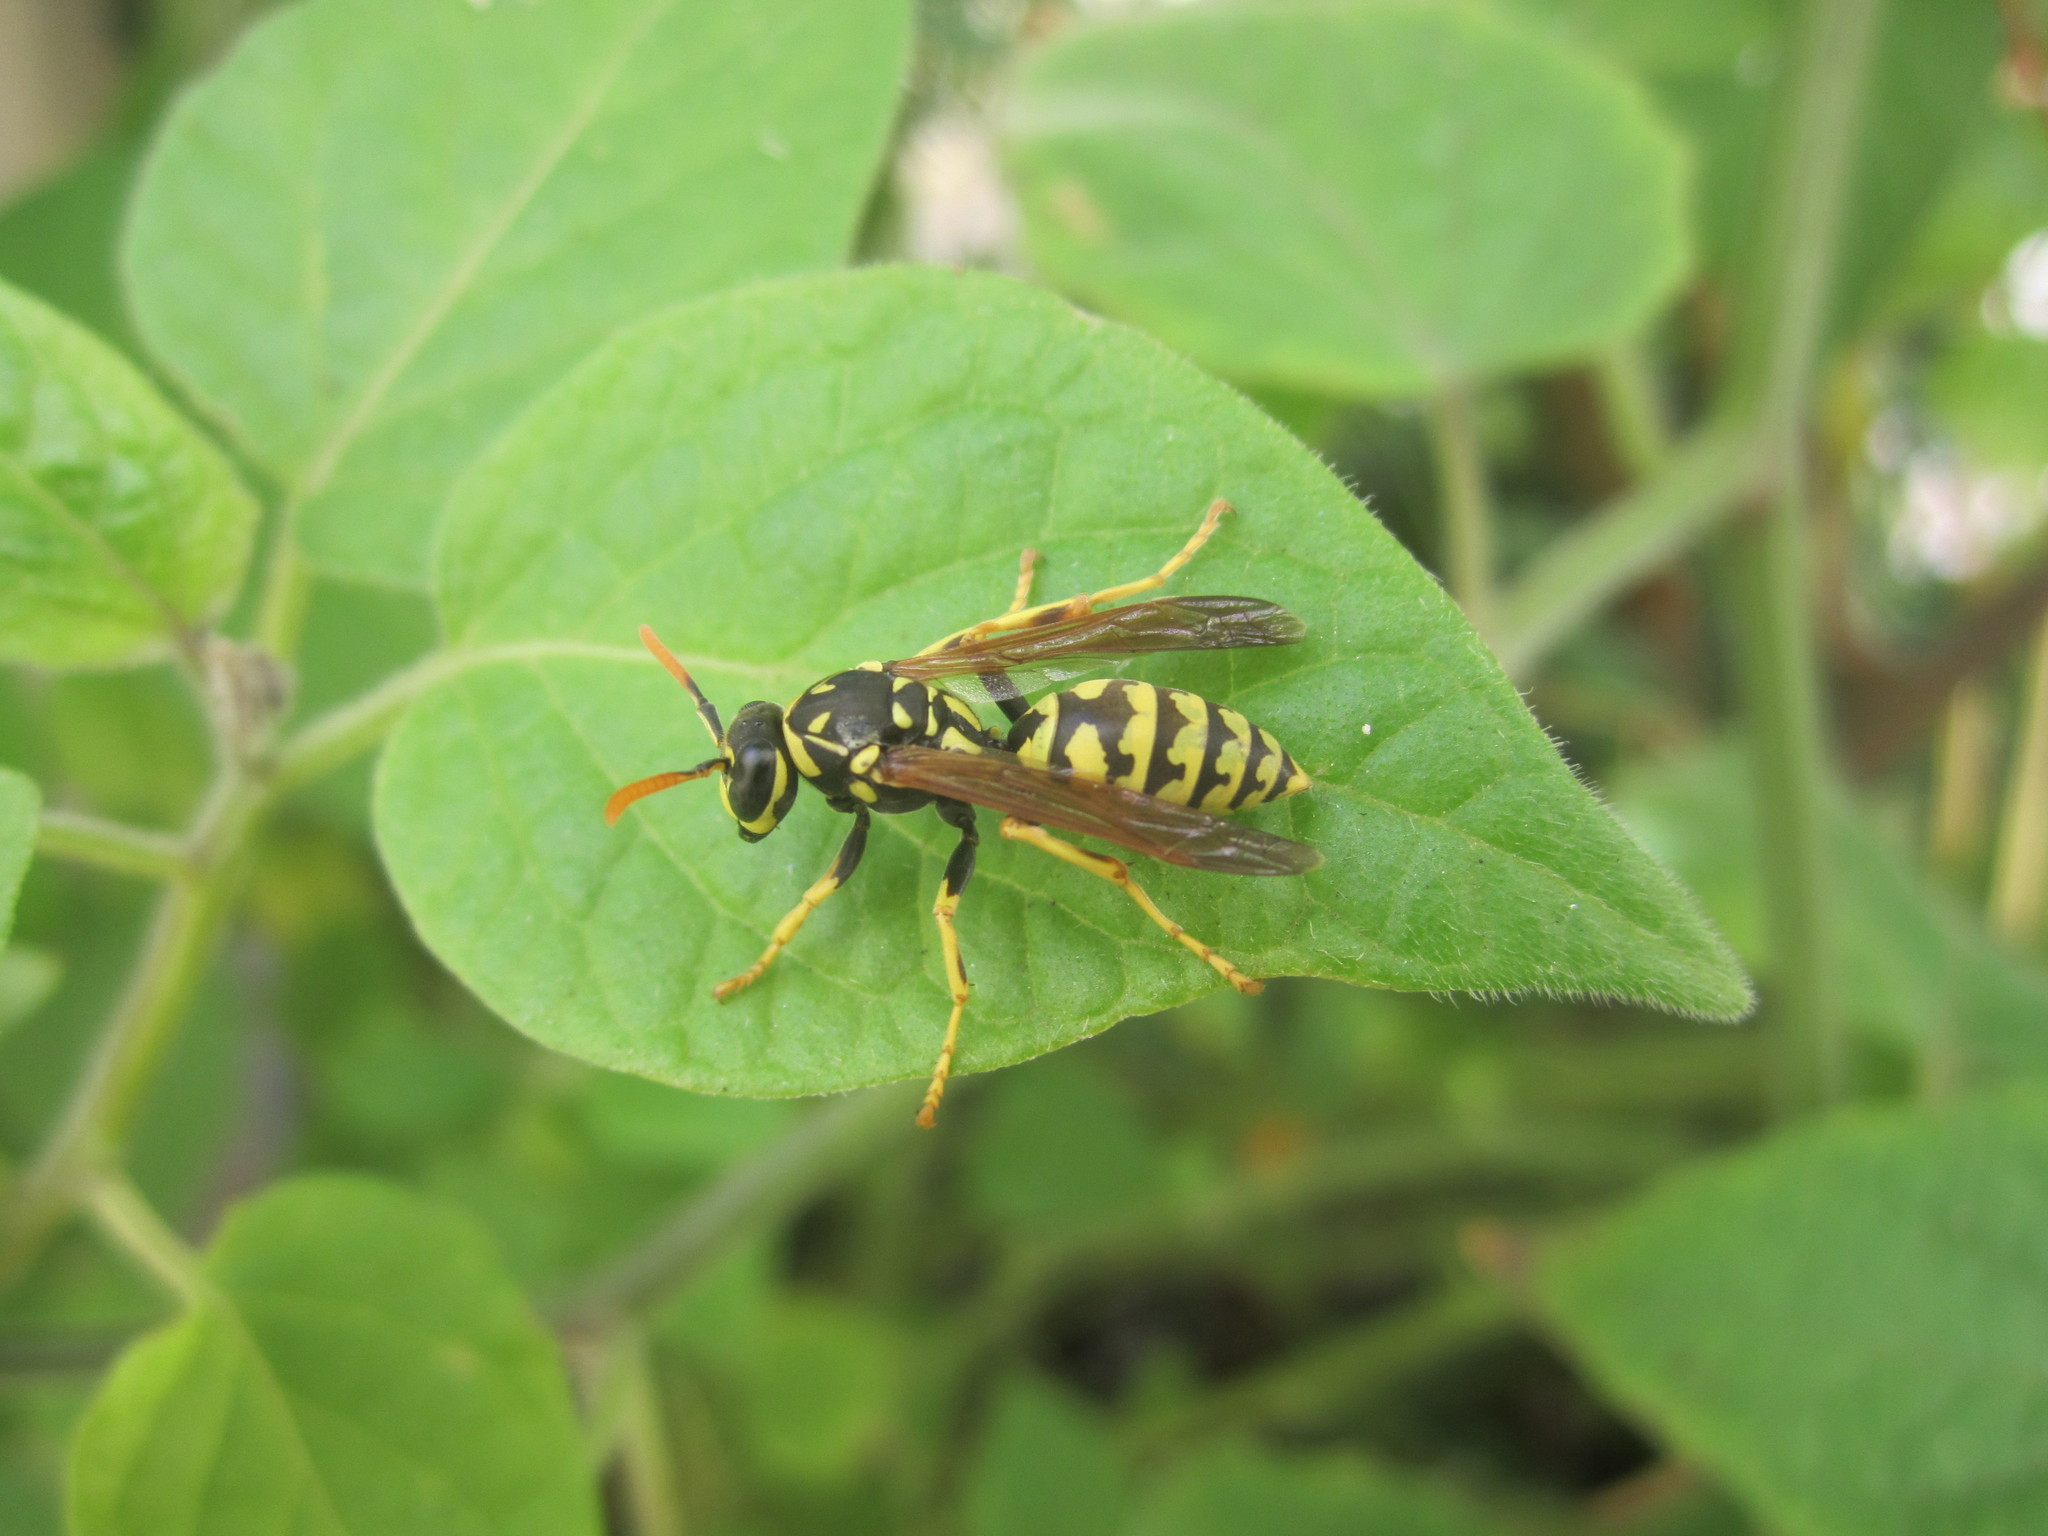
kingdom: Animalia
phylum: Arthropoda
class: Insecta
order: Hymenoptera
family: Eumenidae
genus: Polistes
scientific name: Polistes dominula
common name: Paper wasp
